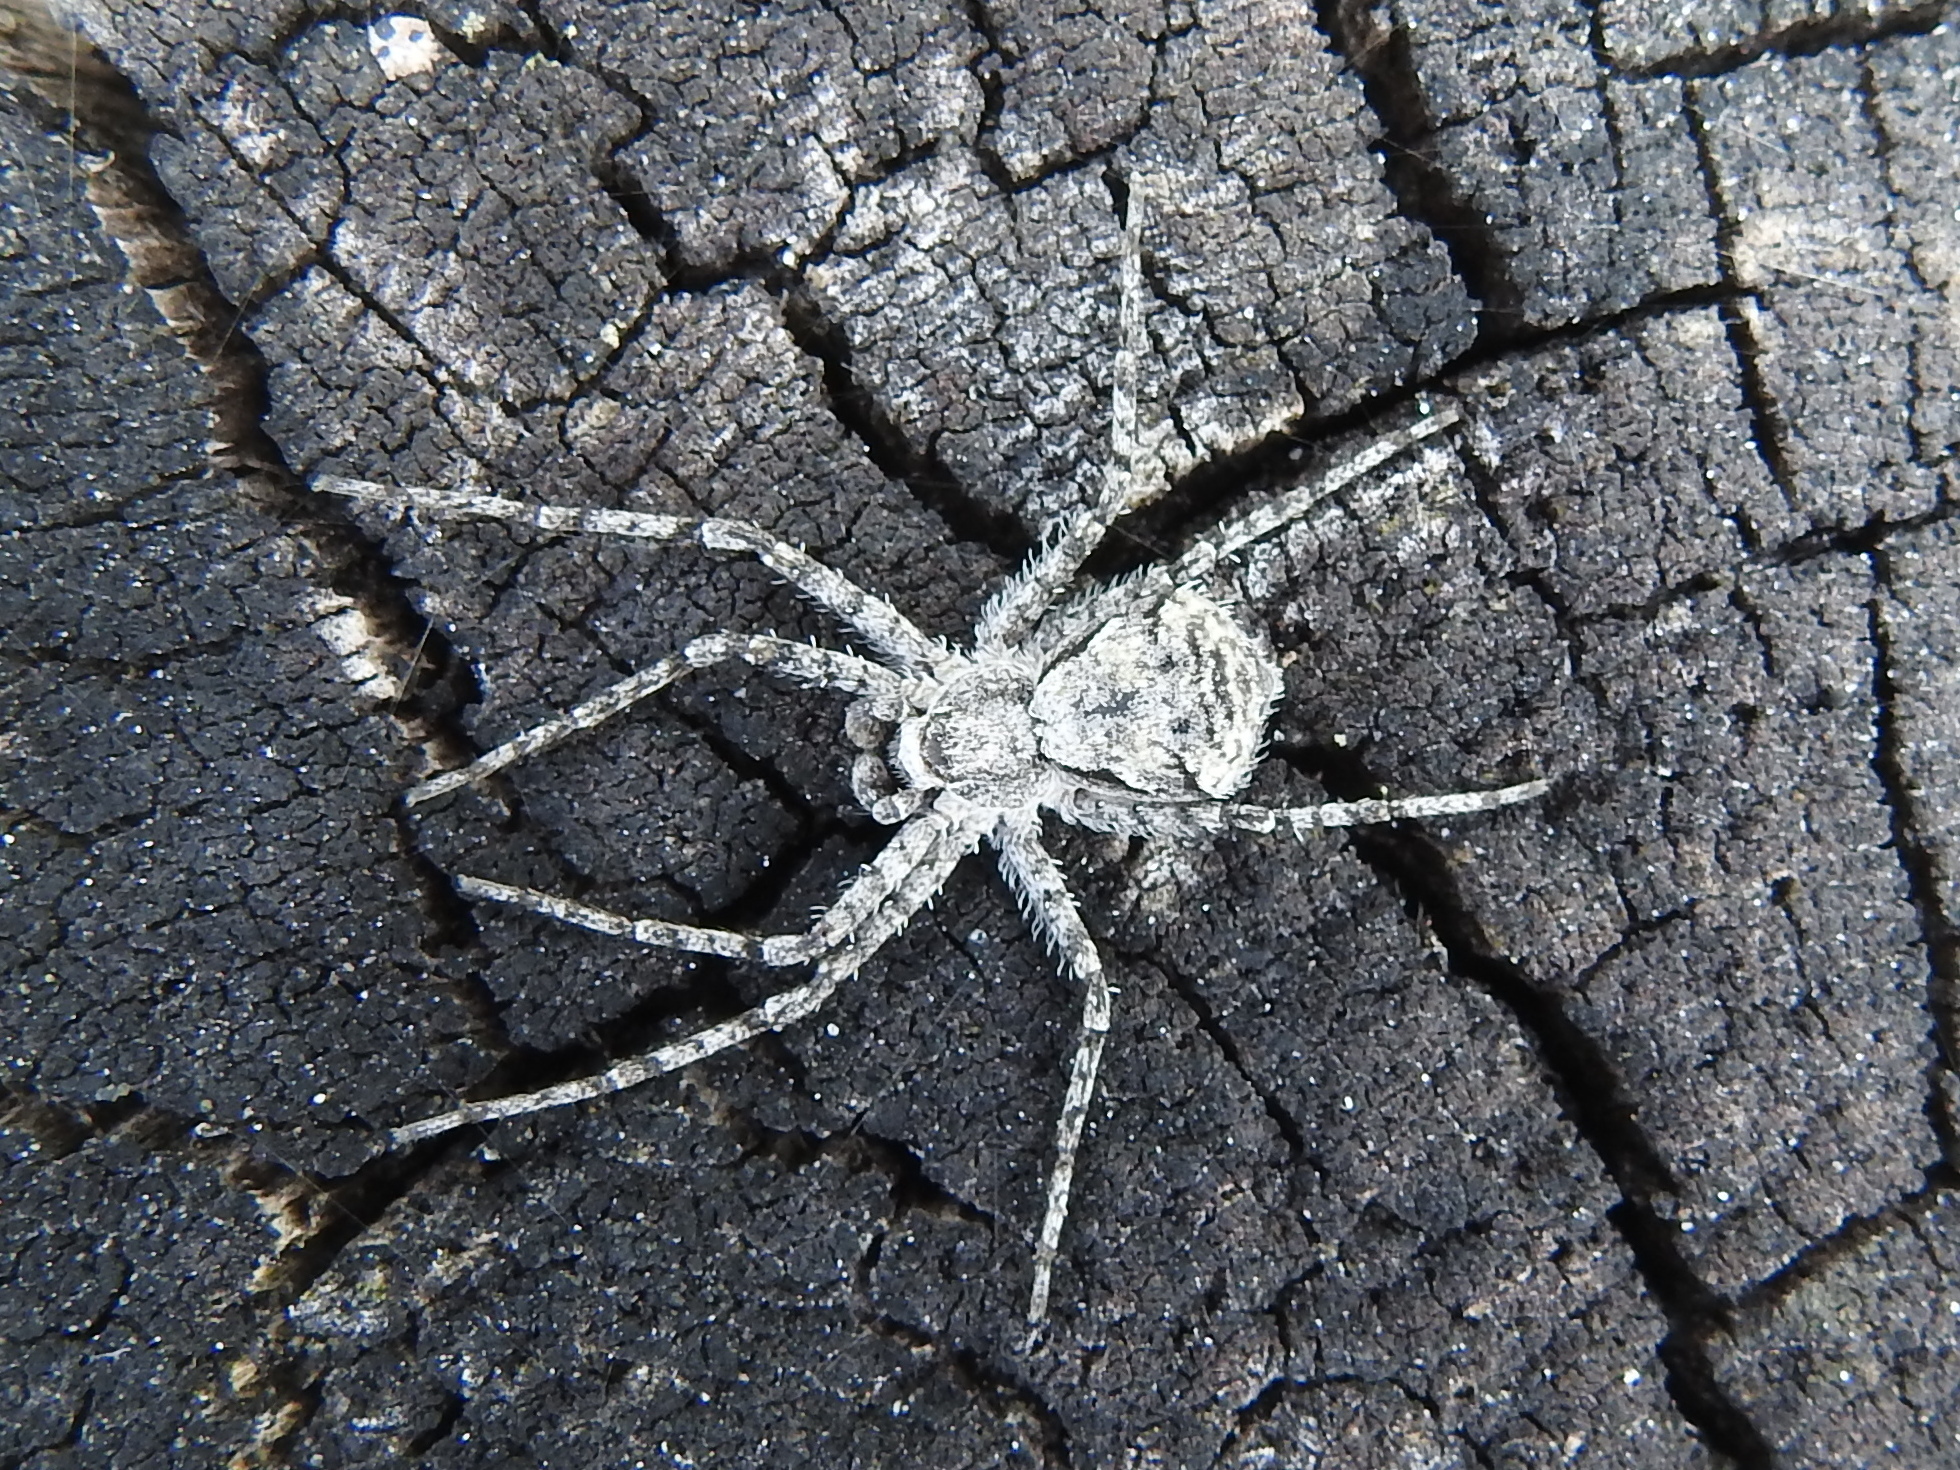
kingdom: Animalia
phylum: Arthropoda
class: Arachnida
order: Araneae
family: Philodromidae
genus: Philodromus
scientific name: Philodromus margaritatus
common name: Lichen running-spider
